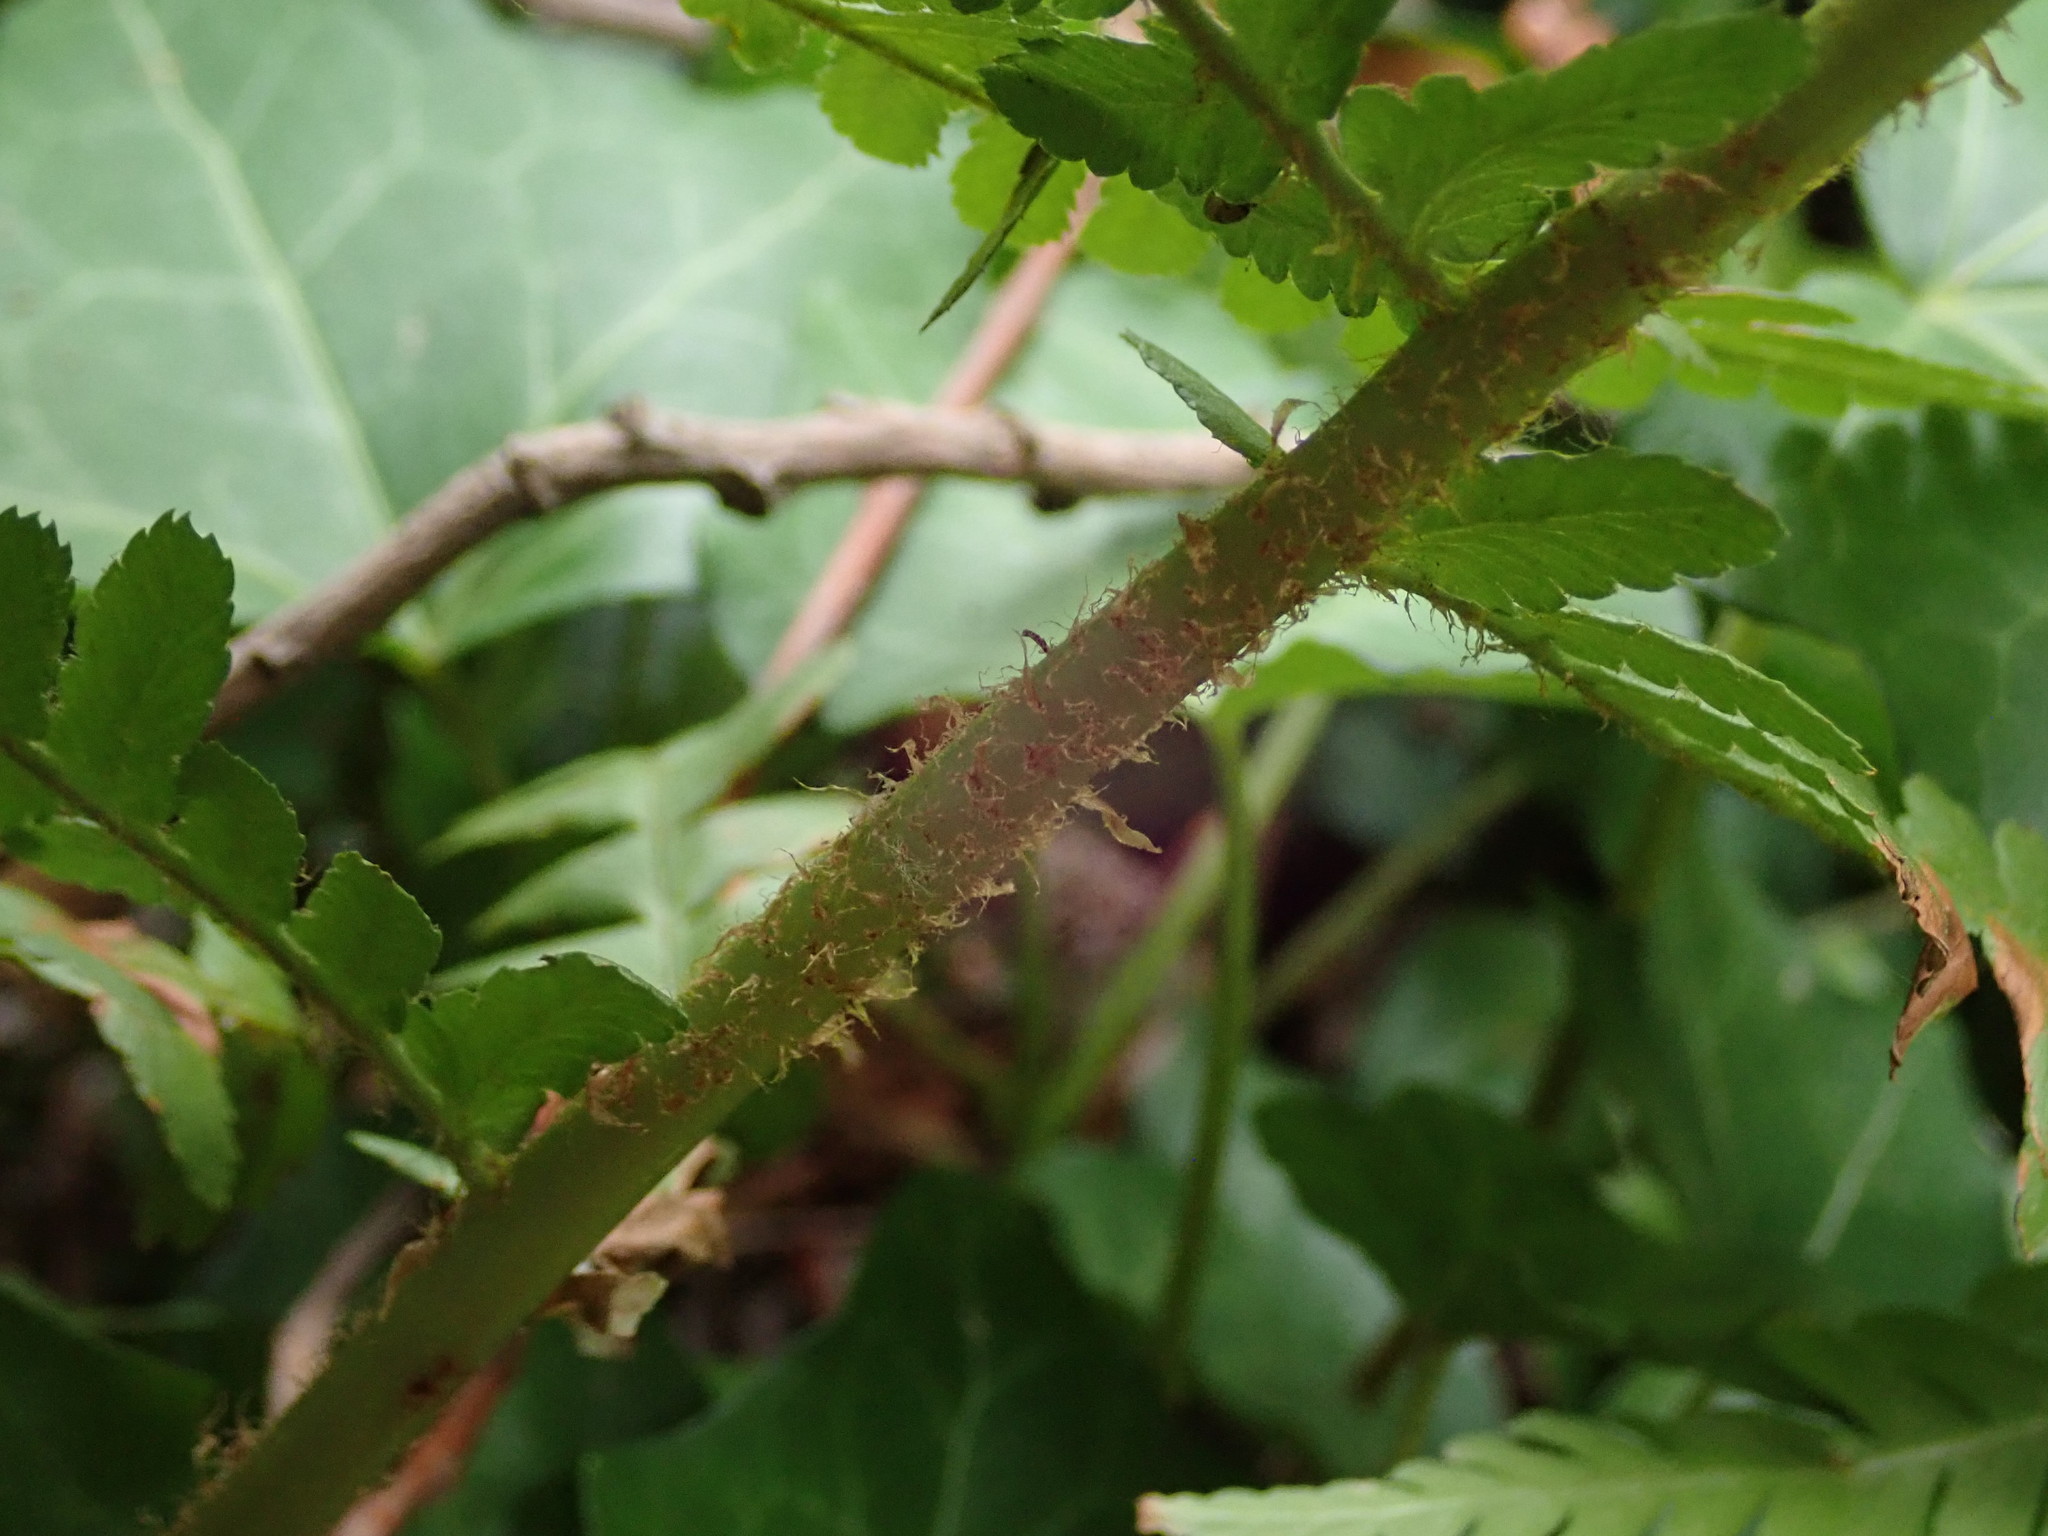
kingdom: Plantae
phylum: Tracheophyta
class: Polypodiopsida
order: Polypodiales
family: Dryopteridaceae
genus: Dryopteris
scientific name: Dryopteris filix-mas
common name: Male fern
